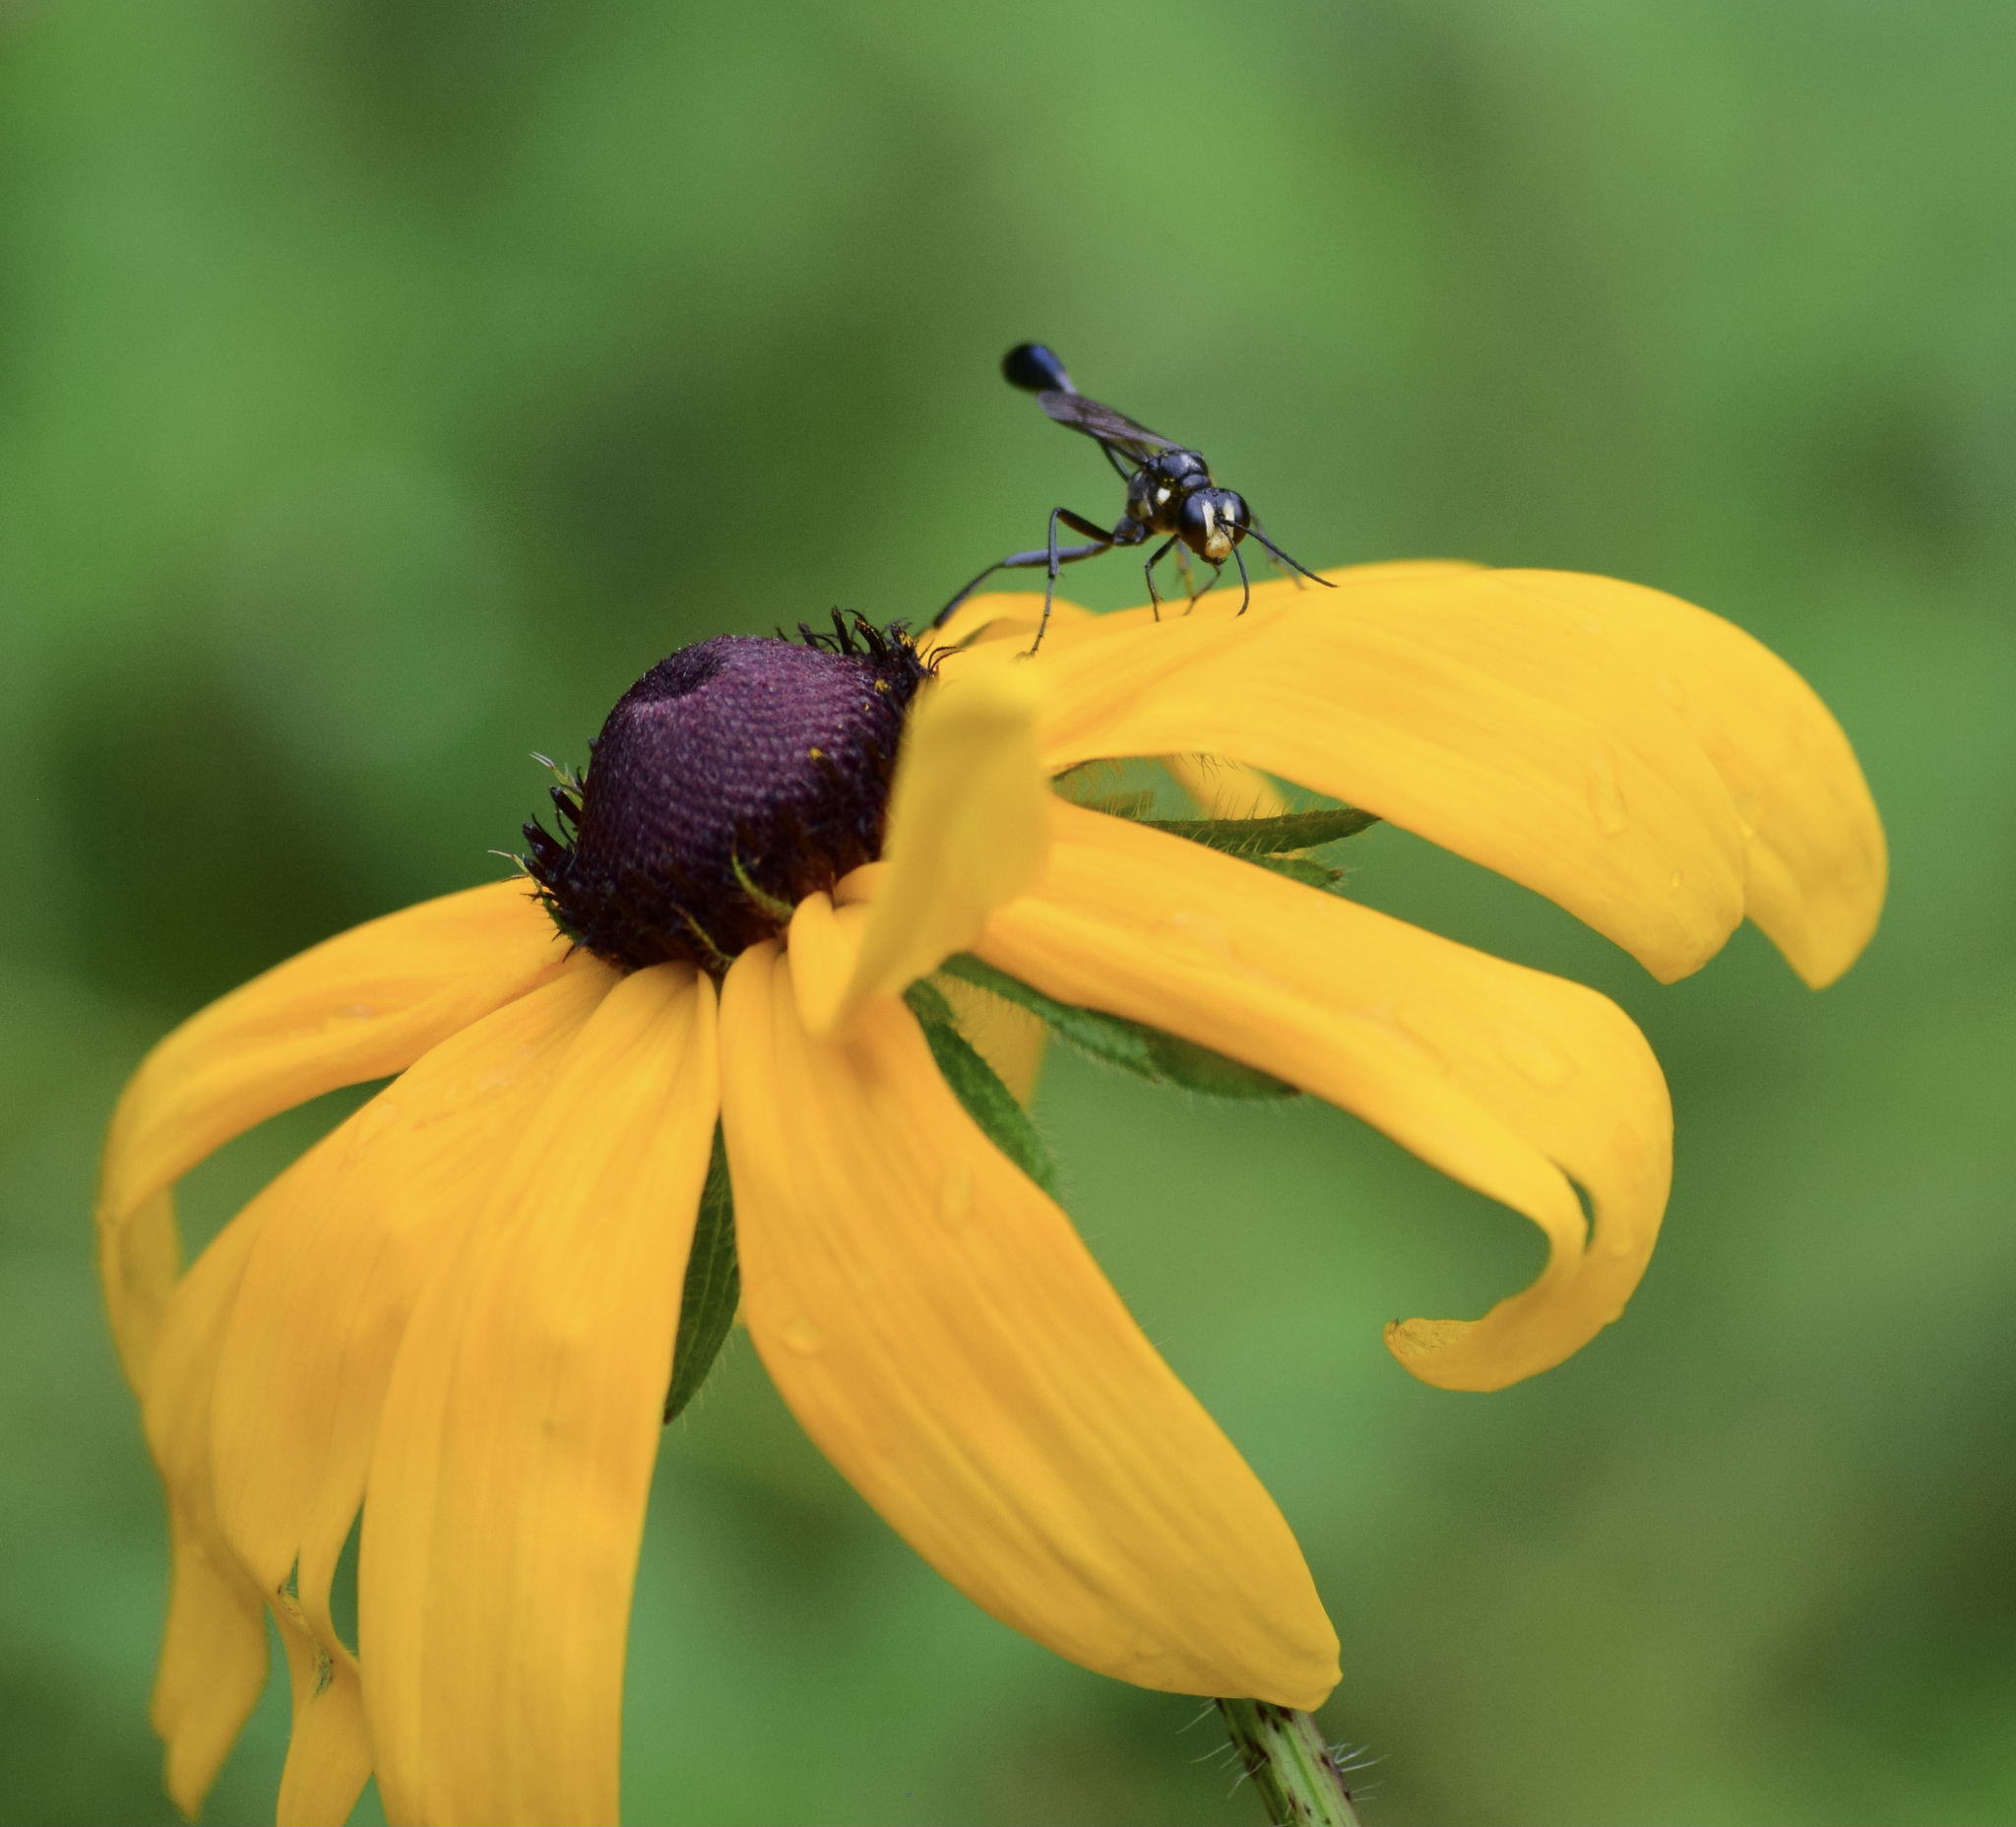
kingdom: Animalia
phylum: Arthropoda
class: Insecta
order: Hymenoptera
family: Sphecidae
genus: Eremnophila
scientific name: Eremnophila aureonotata
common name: Gold-marked thread-waisted wasp
